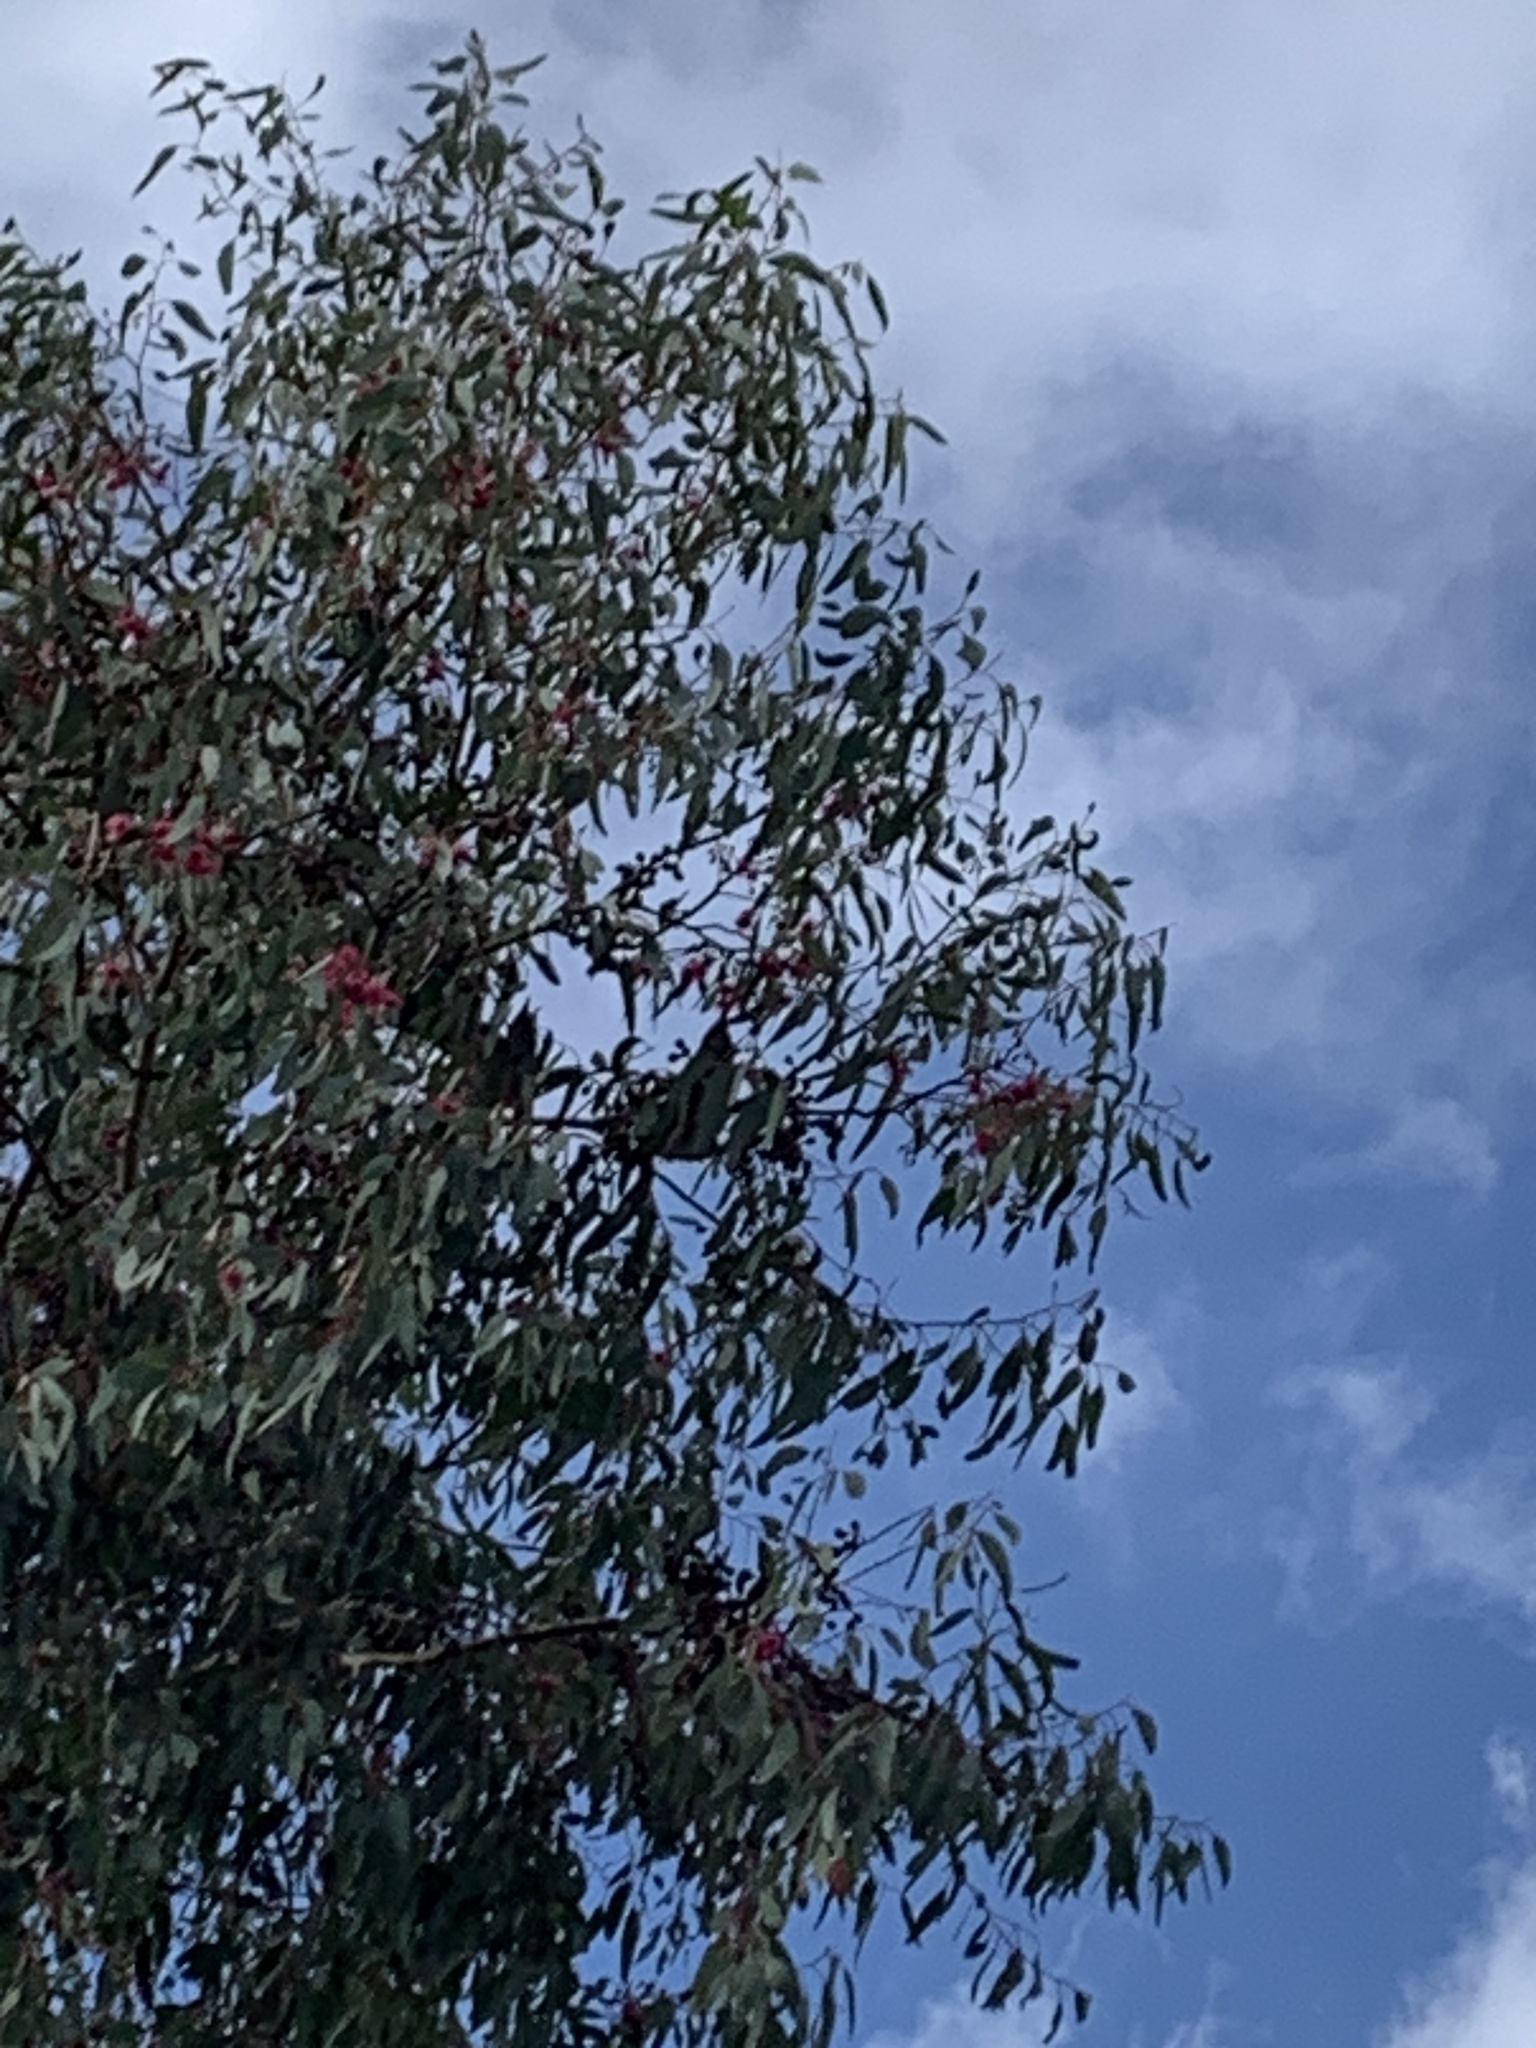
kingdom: Animalia
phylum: Chordata
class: Aves
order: Passeriformes
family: Meliphagidae
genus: Anthochaera
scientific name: Anthochaera chrysoptera
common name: Little wattlebird
